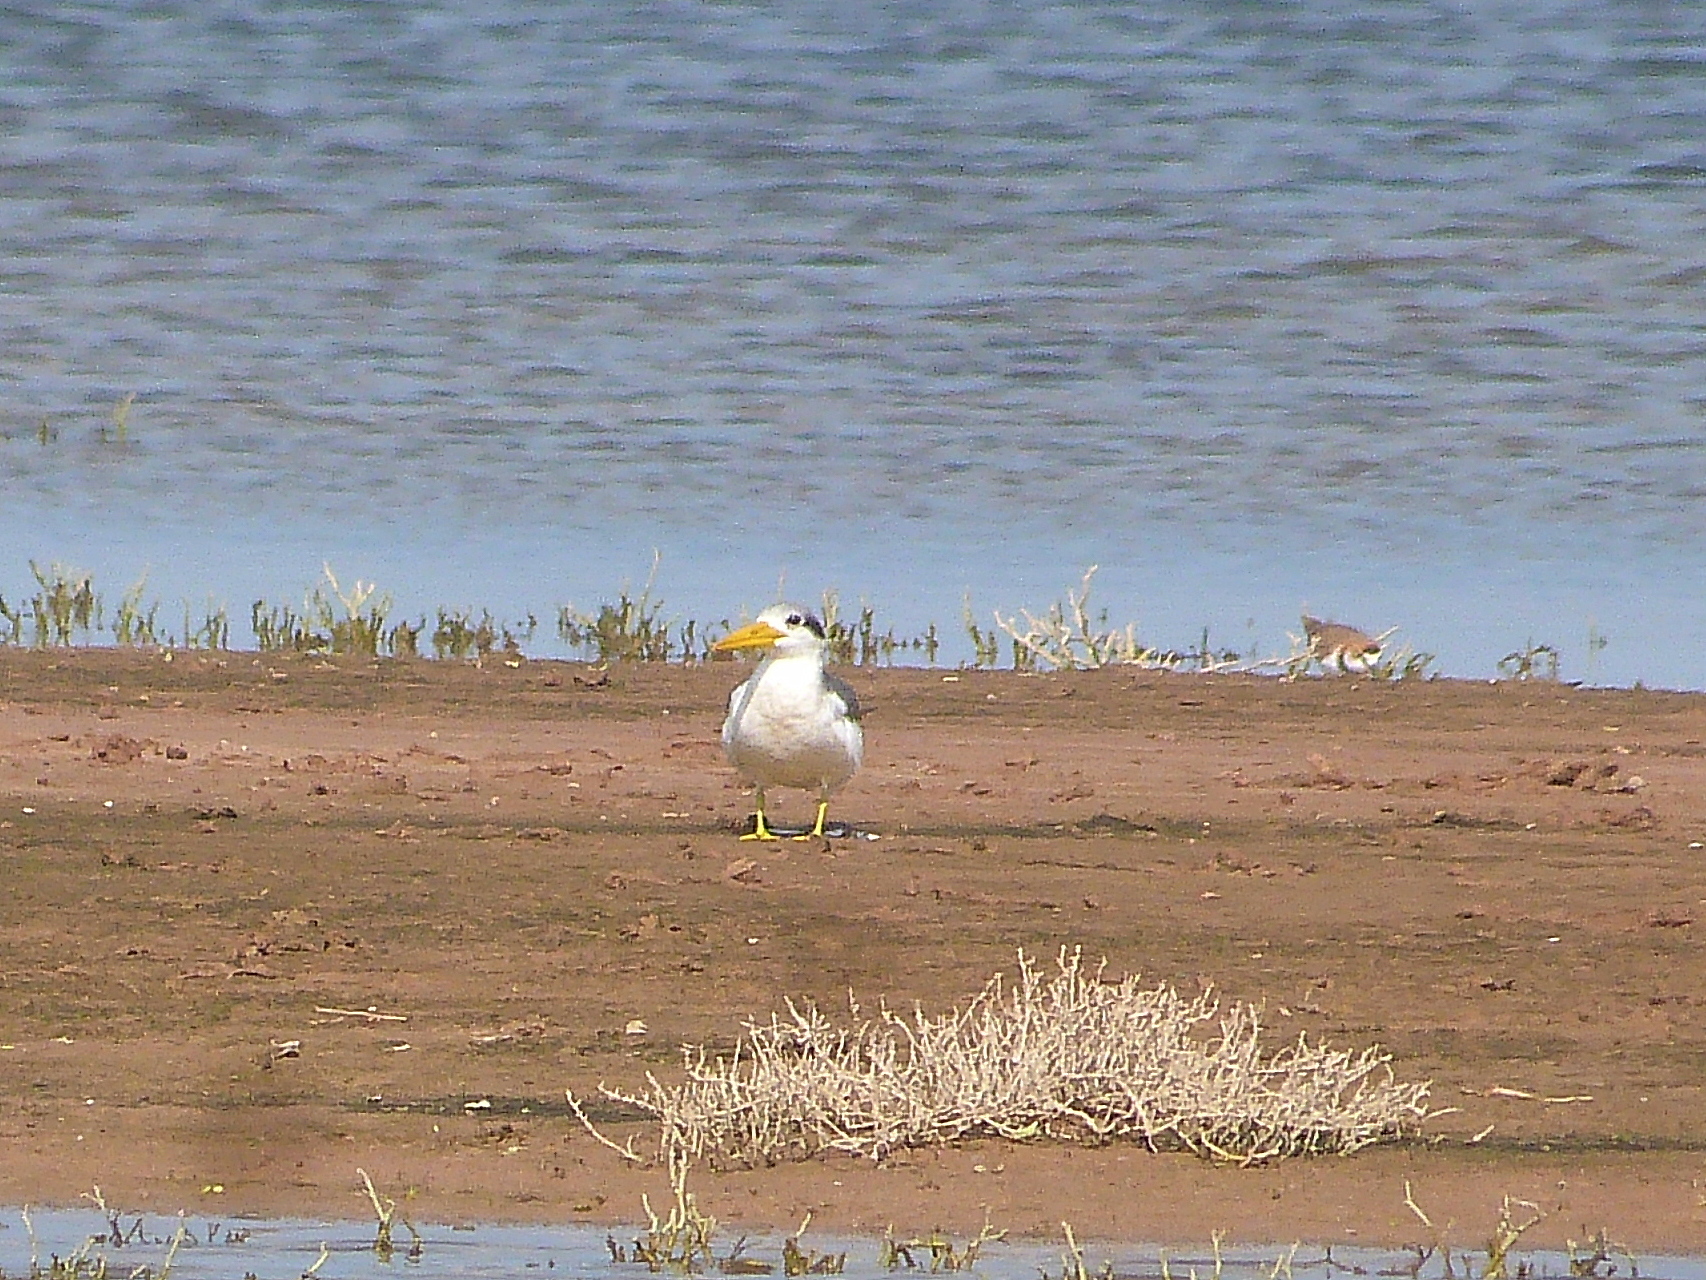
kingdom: Animalia
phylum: Chordata
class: Aves
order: Charadriiformes
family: Laridae
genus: Phaetusa
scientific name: Phaetusa simplex
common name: Large-billed tern
